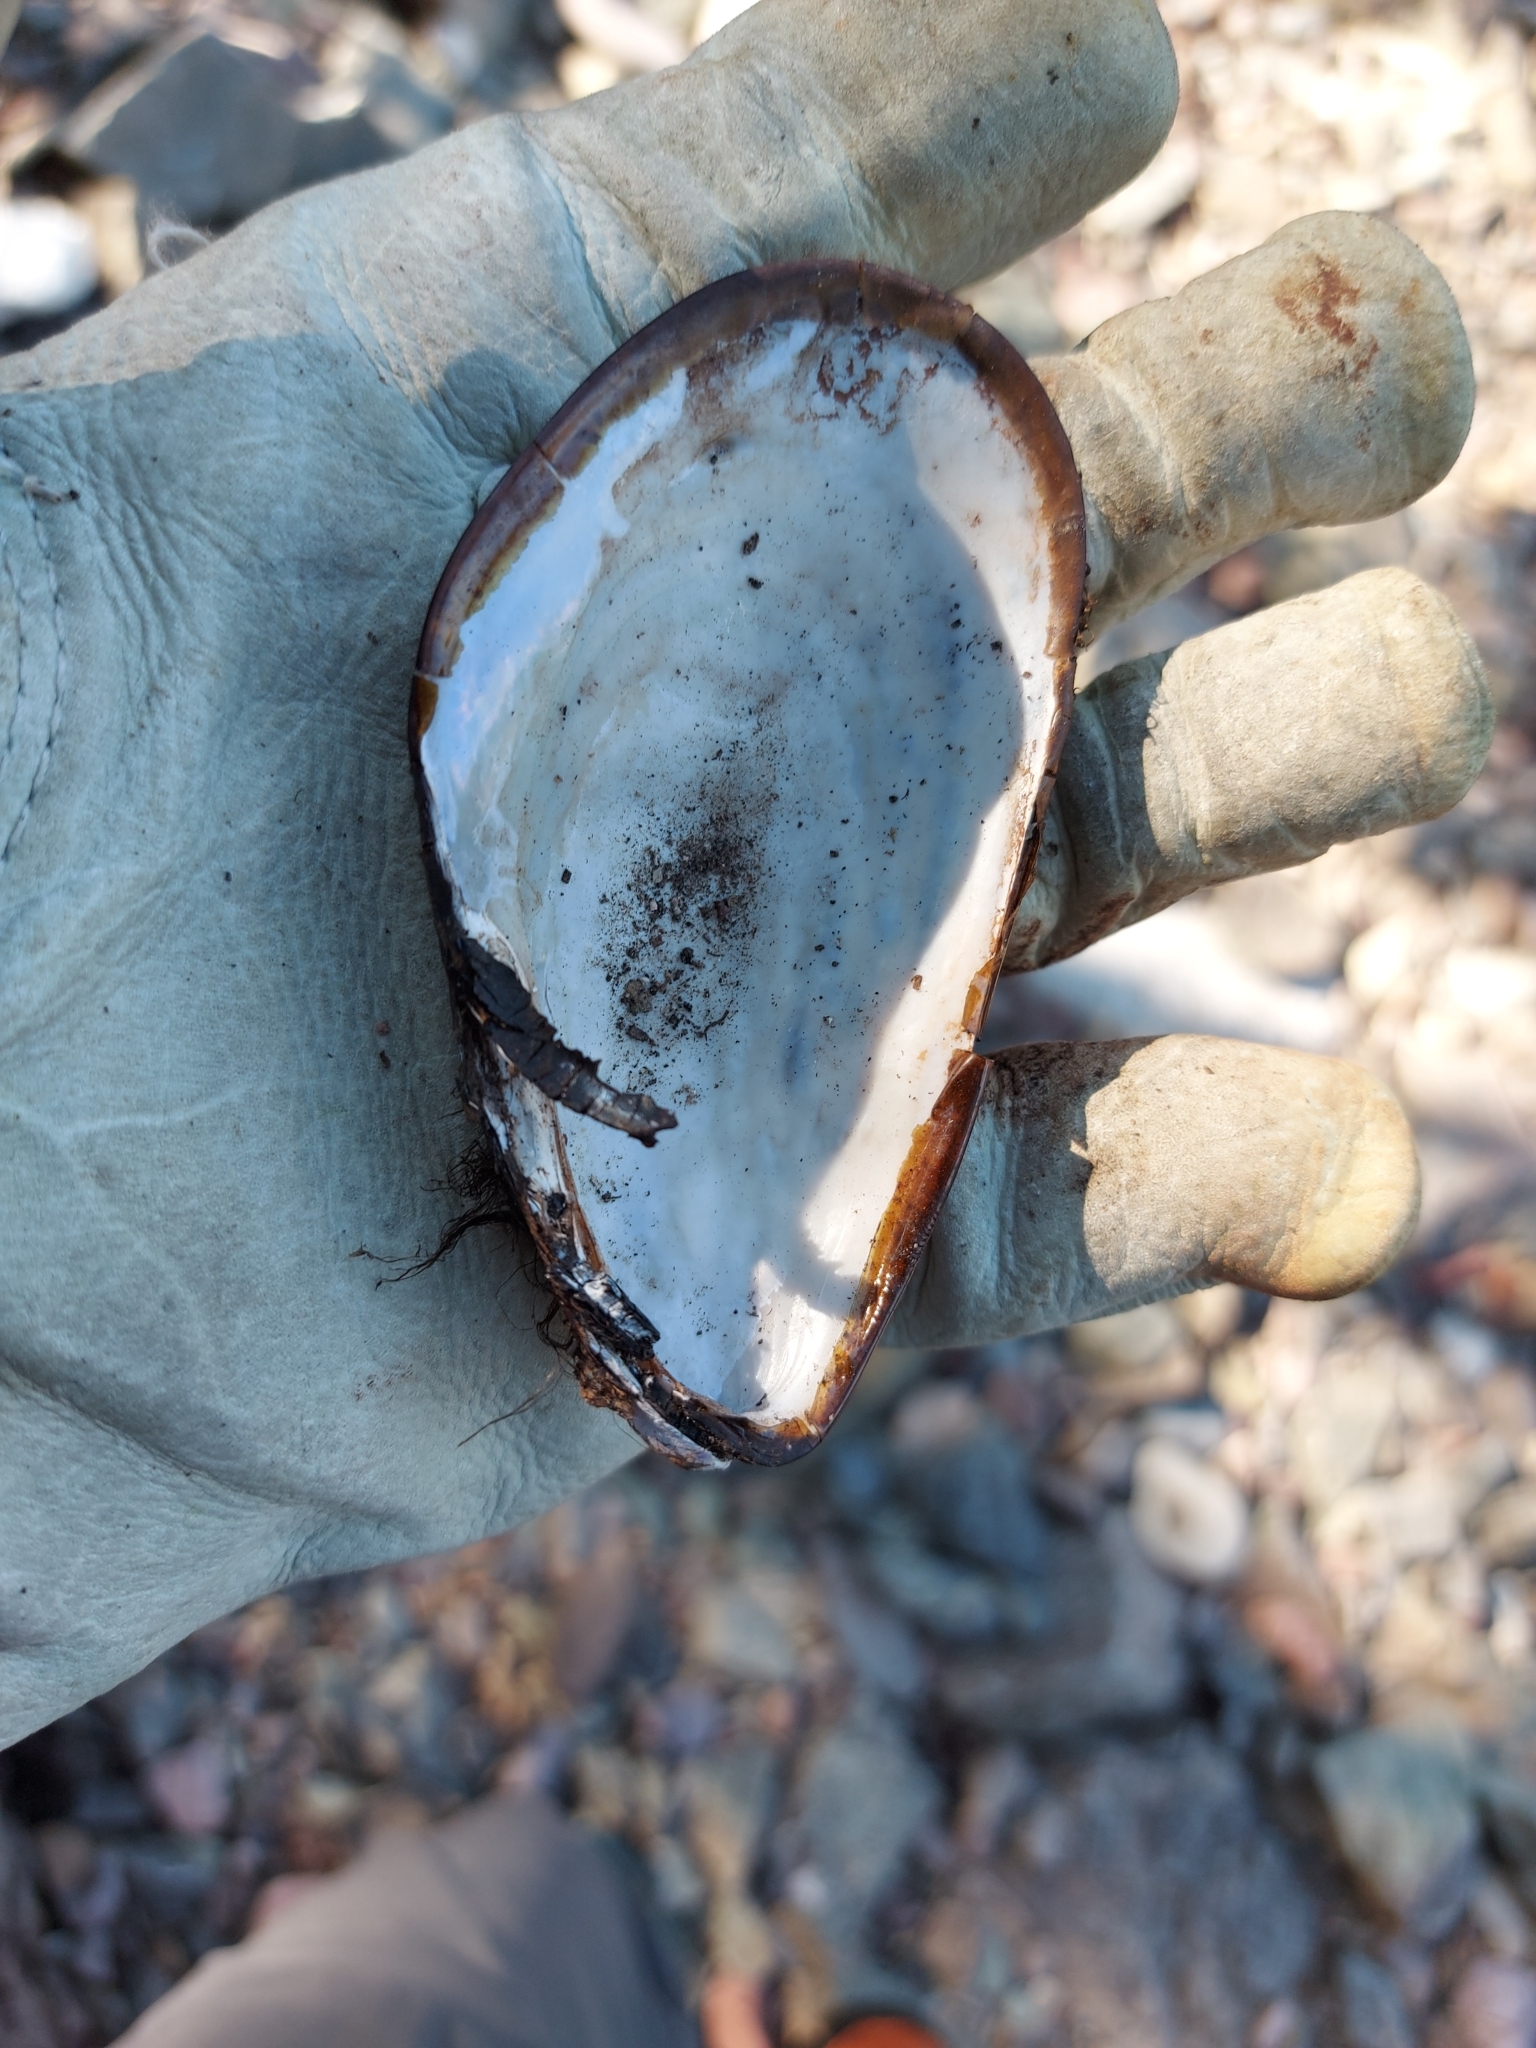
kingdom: Animalia
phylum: Mollusca
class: Bivalvia
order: Mytilida
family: Mytilidae
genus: Modiolus
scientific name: Modiolus modiolus
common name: Horse-mussel
